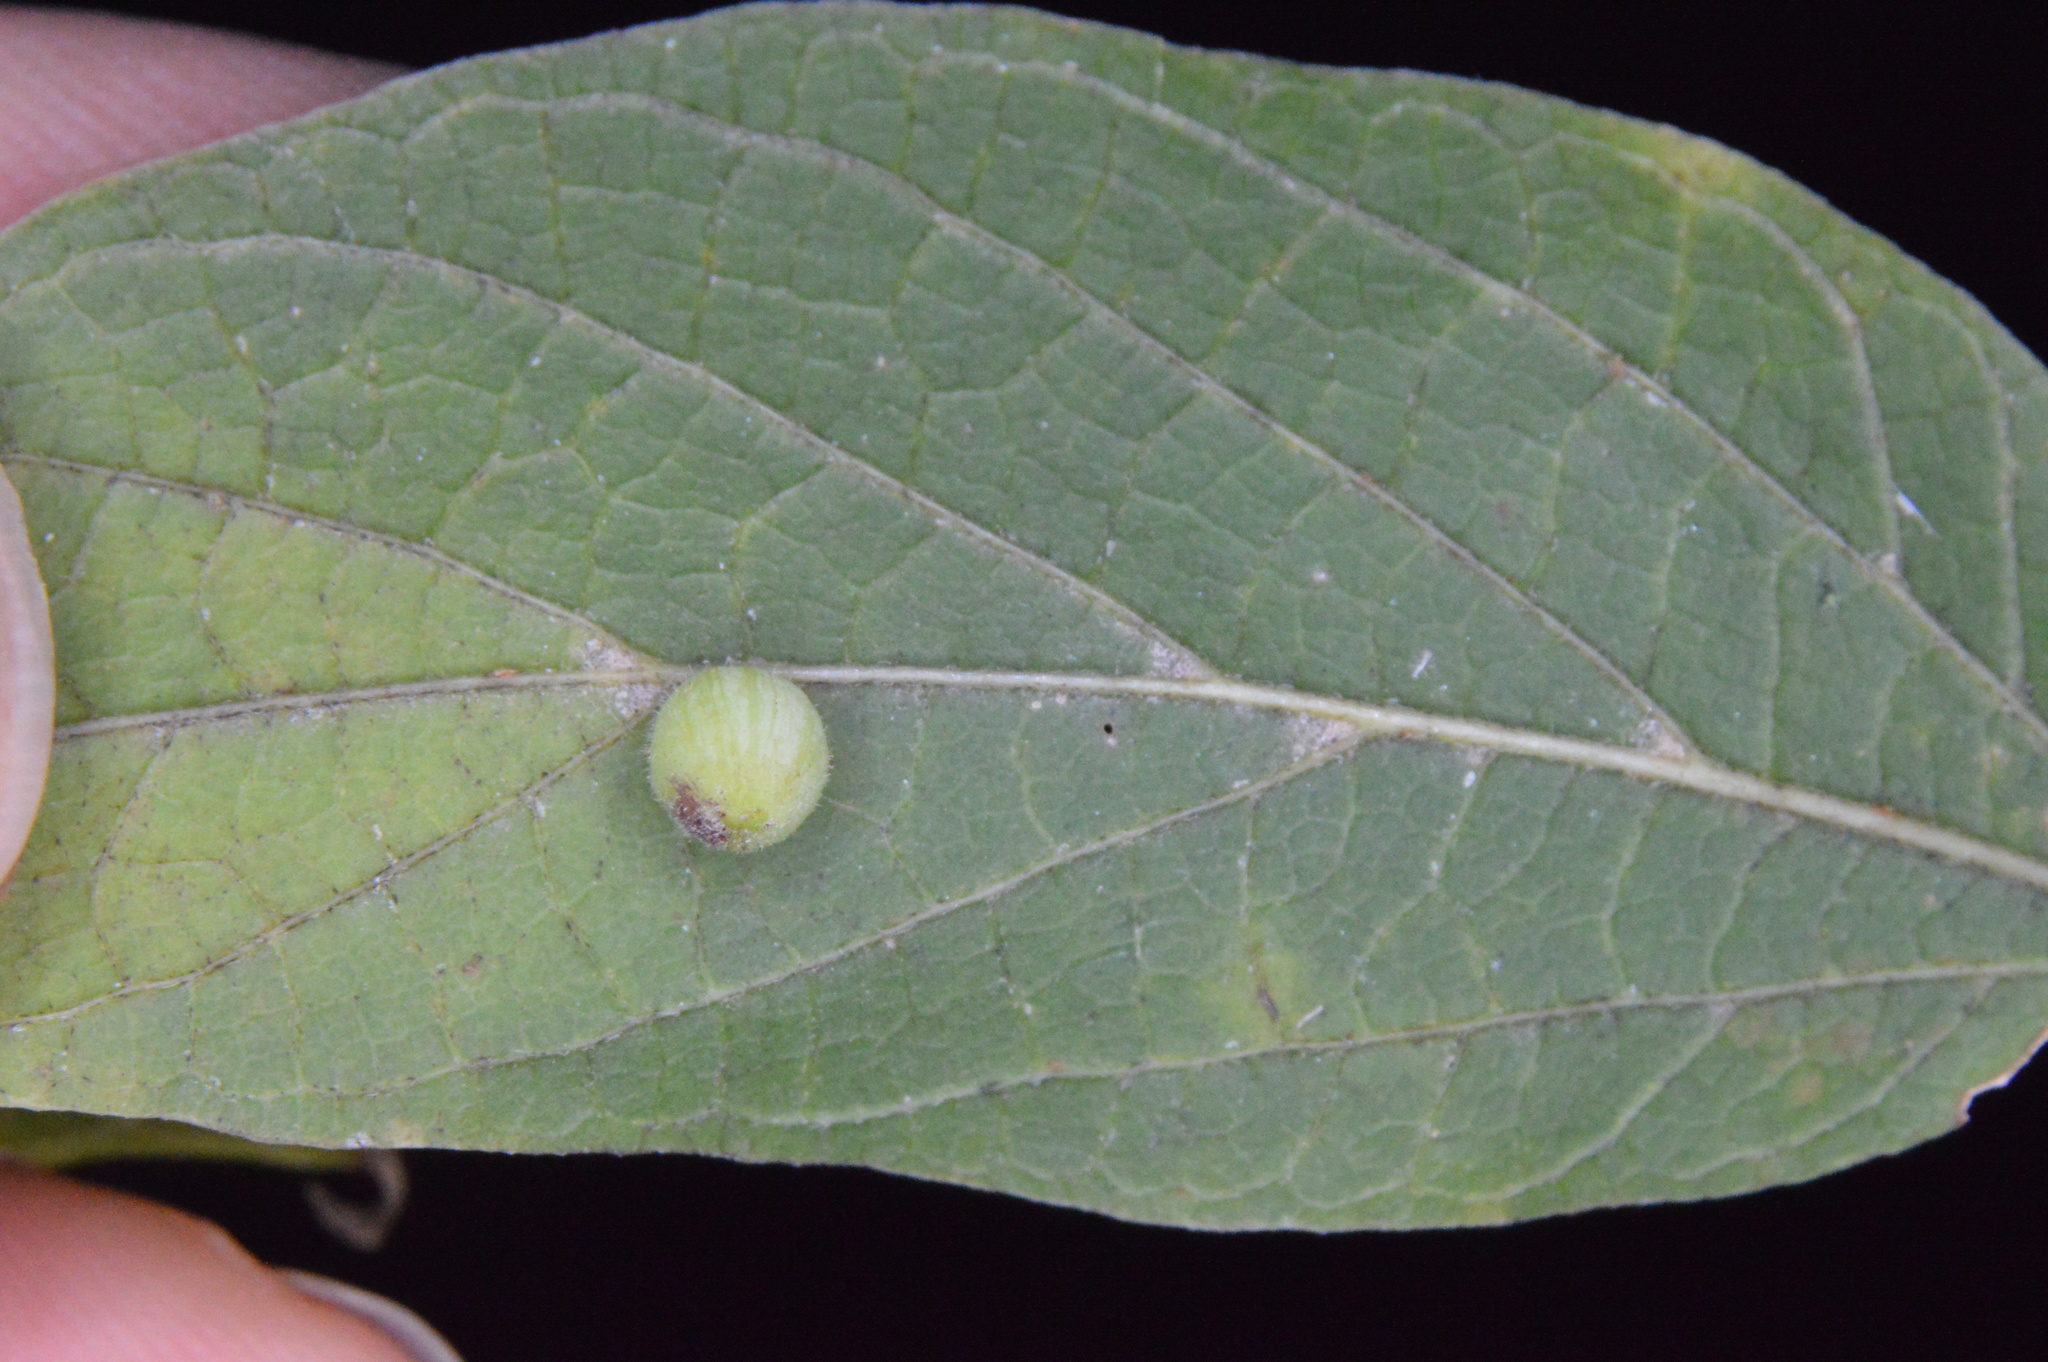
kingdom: Animalia
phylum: Arthropoda
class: Insecta
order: Diptera
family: Cecidomyiidae
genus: Celticecis
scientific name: Celticecis globosa
